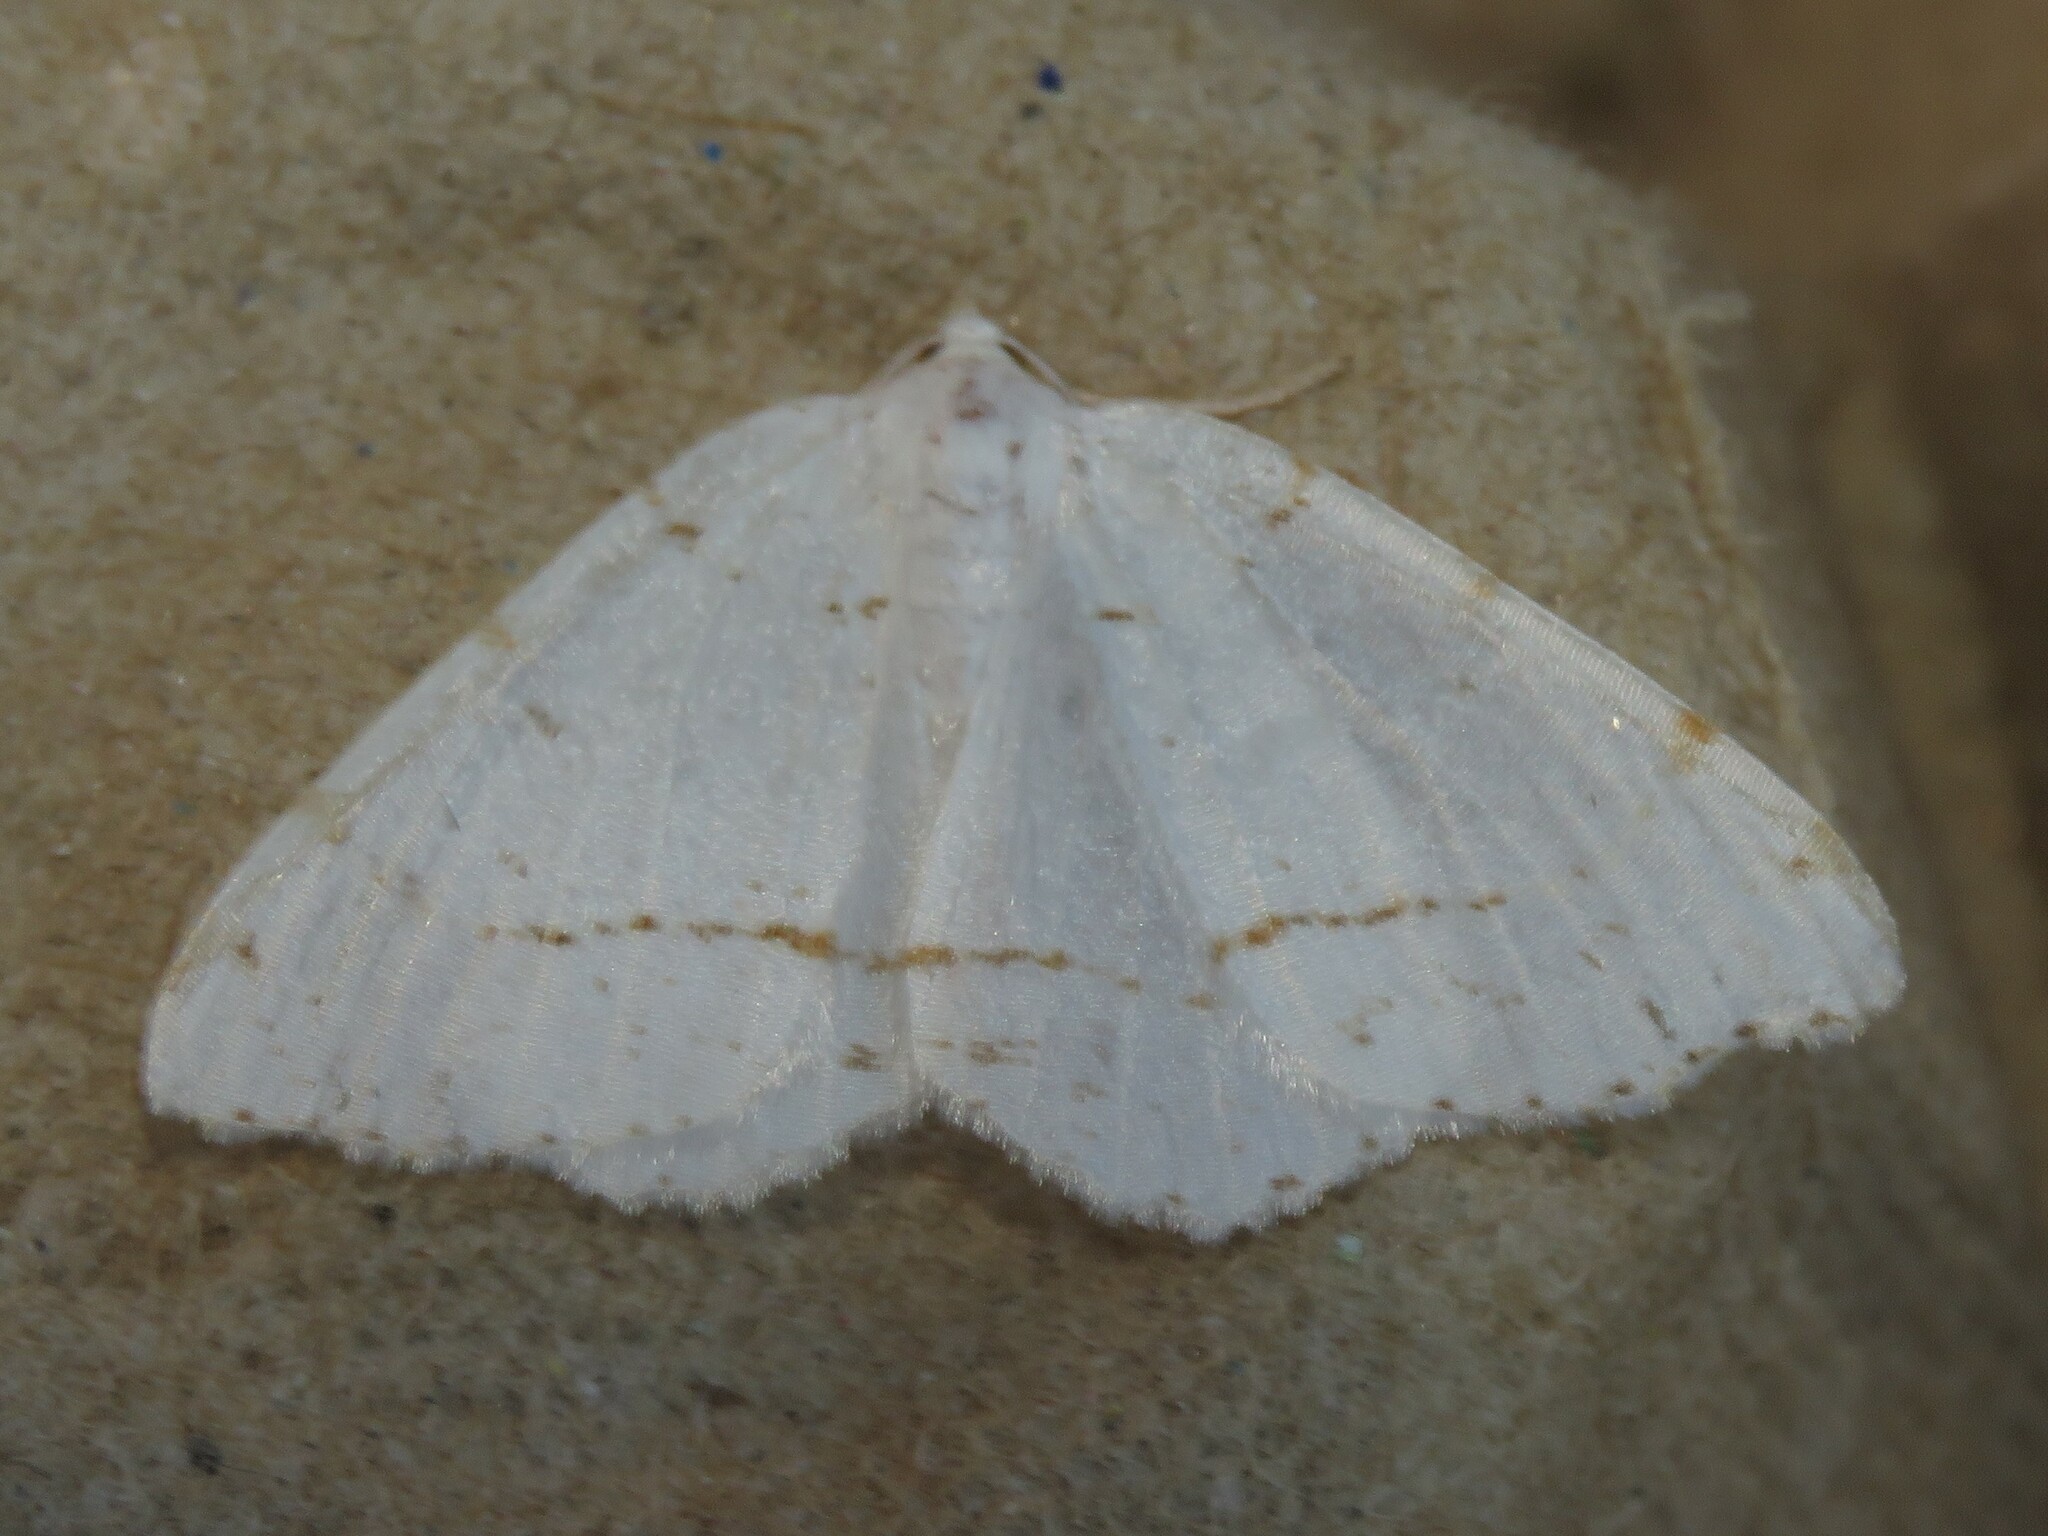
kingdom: Animalia
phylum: Arthropoda
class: Insecta
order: Lepidoptera
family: Geometridae
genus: Macaria
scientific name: Macaria pustularia
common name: Lesser maple spanworm moth
